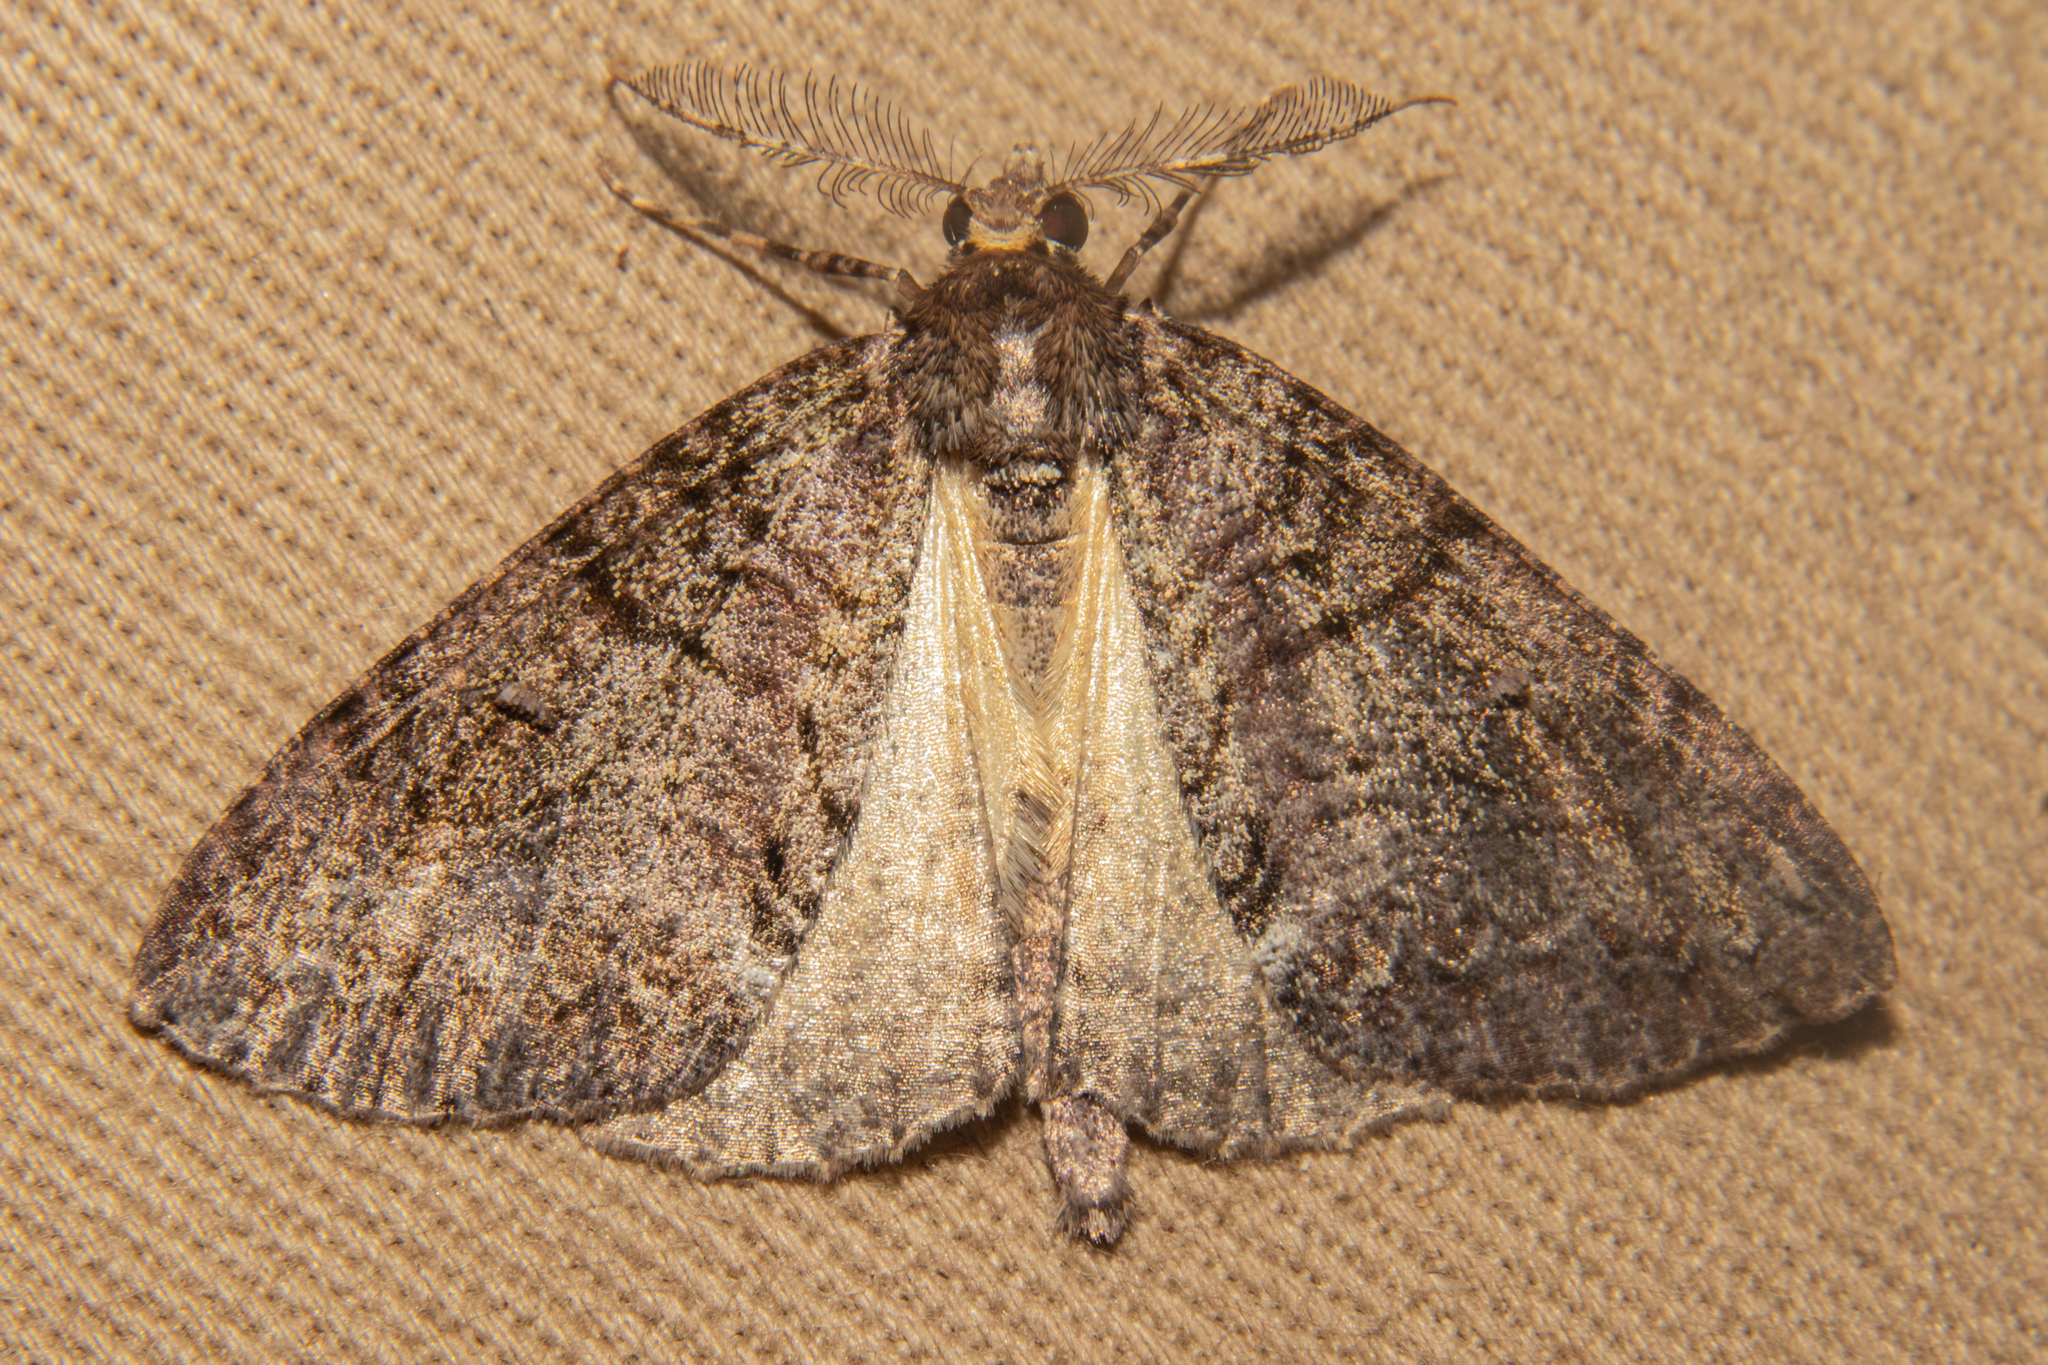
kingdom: Animalia
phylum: Arthropoda
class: Insecta
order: Lepidoptera
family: Geometridae
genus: Pseudocoremia
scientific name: Pseudocoremia suavis
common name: Common forest looper
